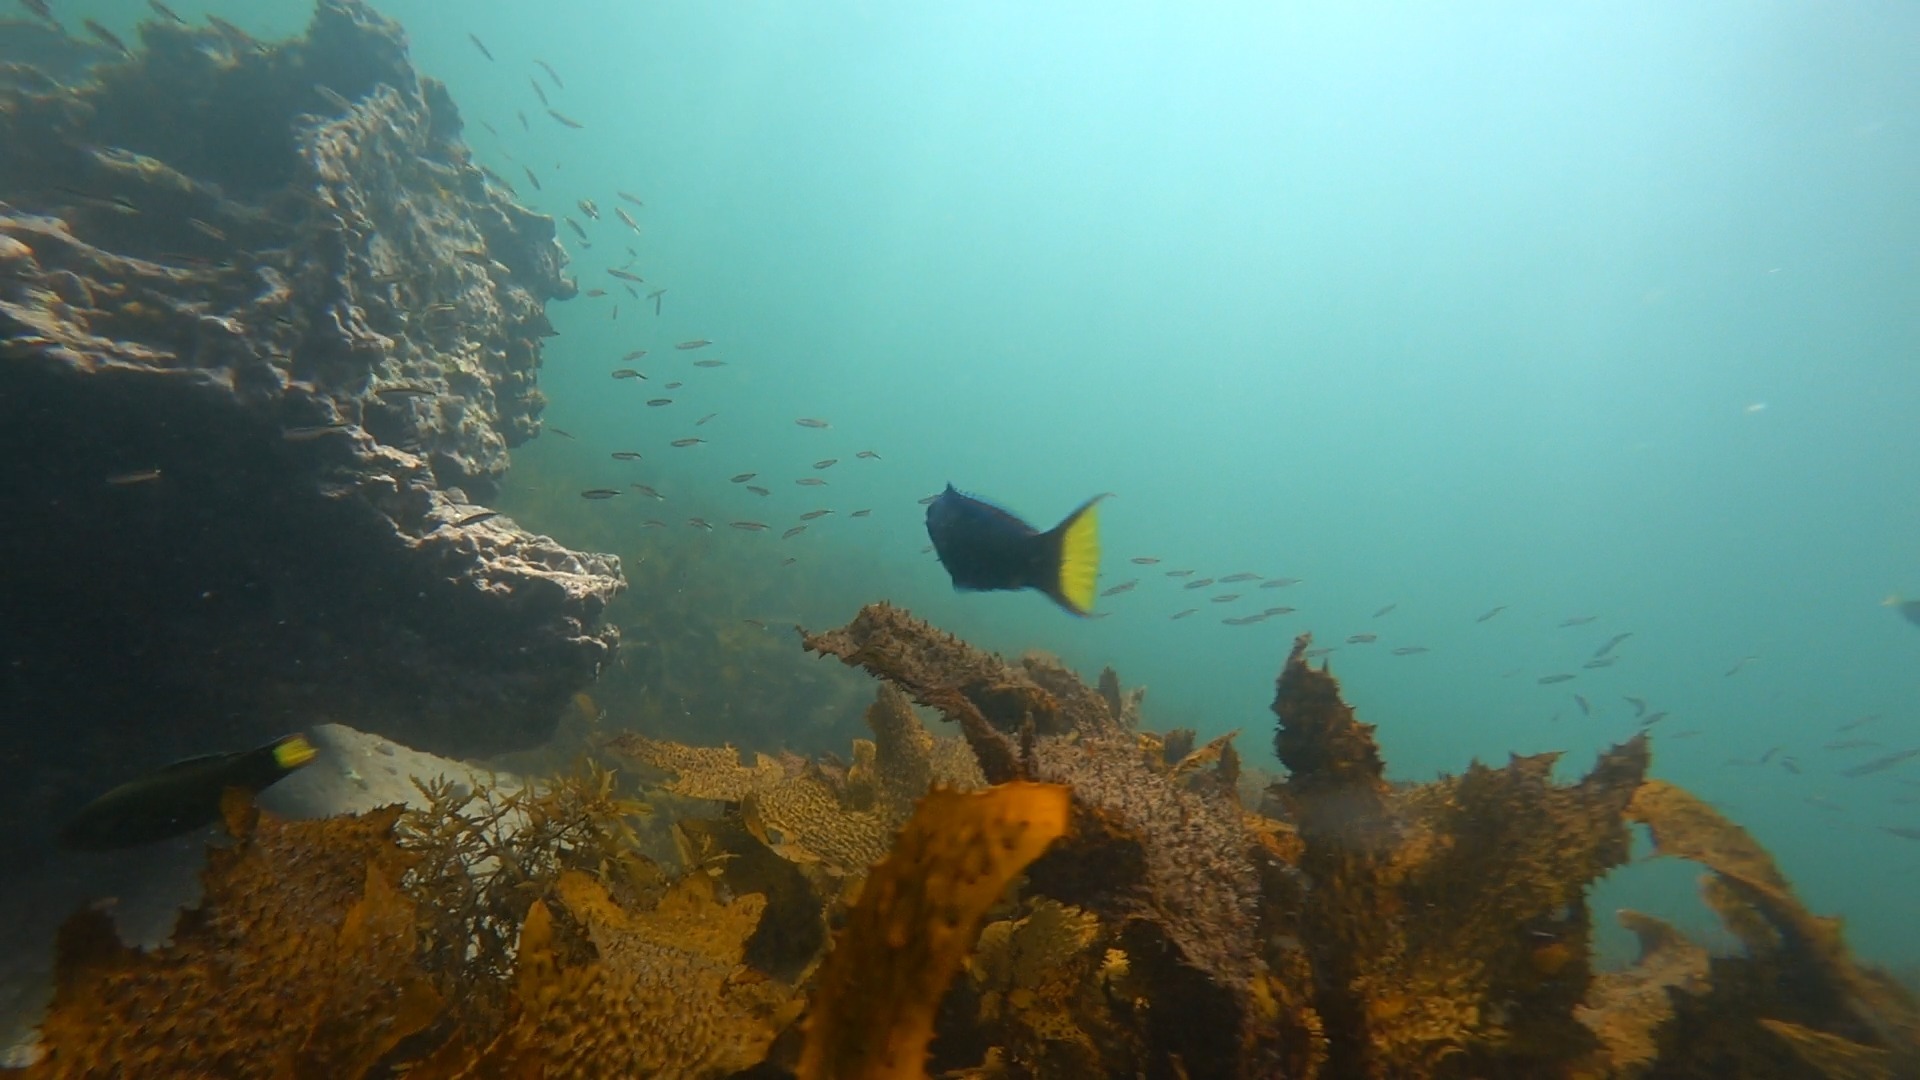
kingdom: Animalia
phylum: Chordata
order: Perciformes
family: Labridae
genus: Thalassoma
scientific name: Thalassoma lunare
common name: Blue wrasse
